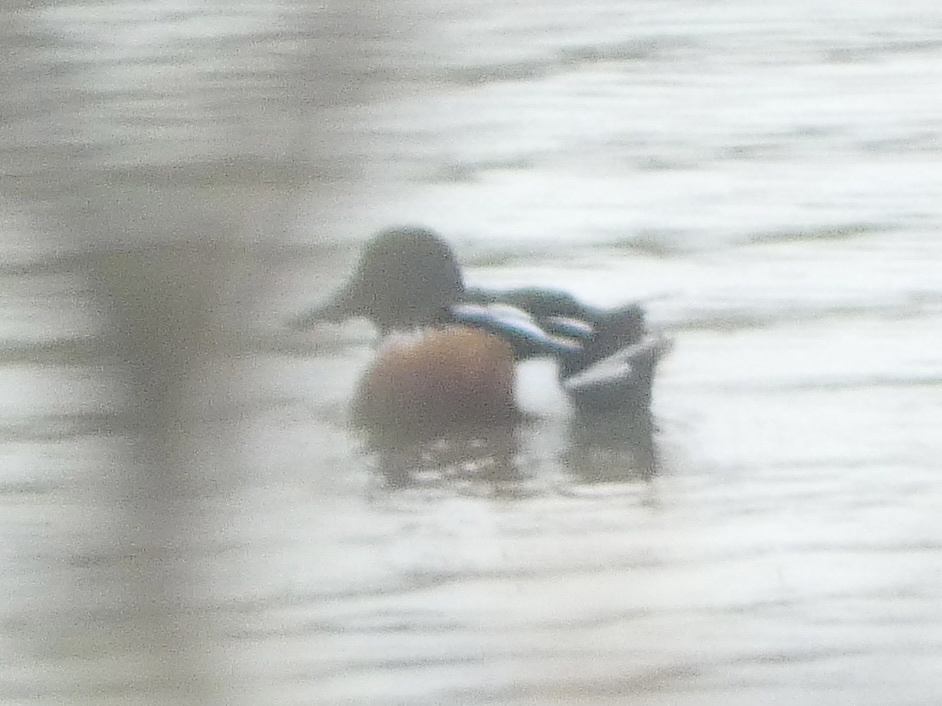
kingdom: Animalia
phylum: Chordata
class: Aves
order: Anseriformes
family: Anatidae
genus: Spatula
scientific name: Spatula clypeata
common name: Northern shoveler
